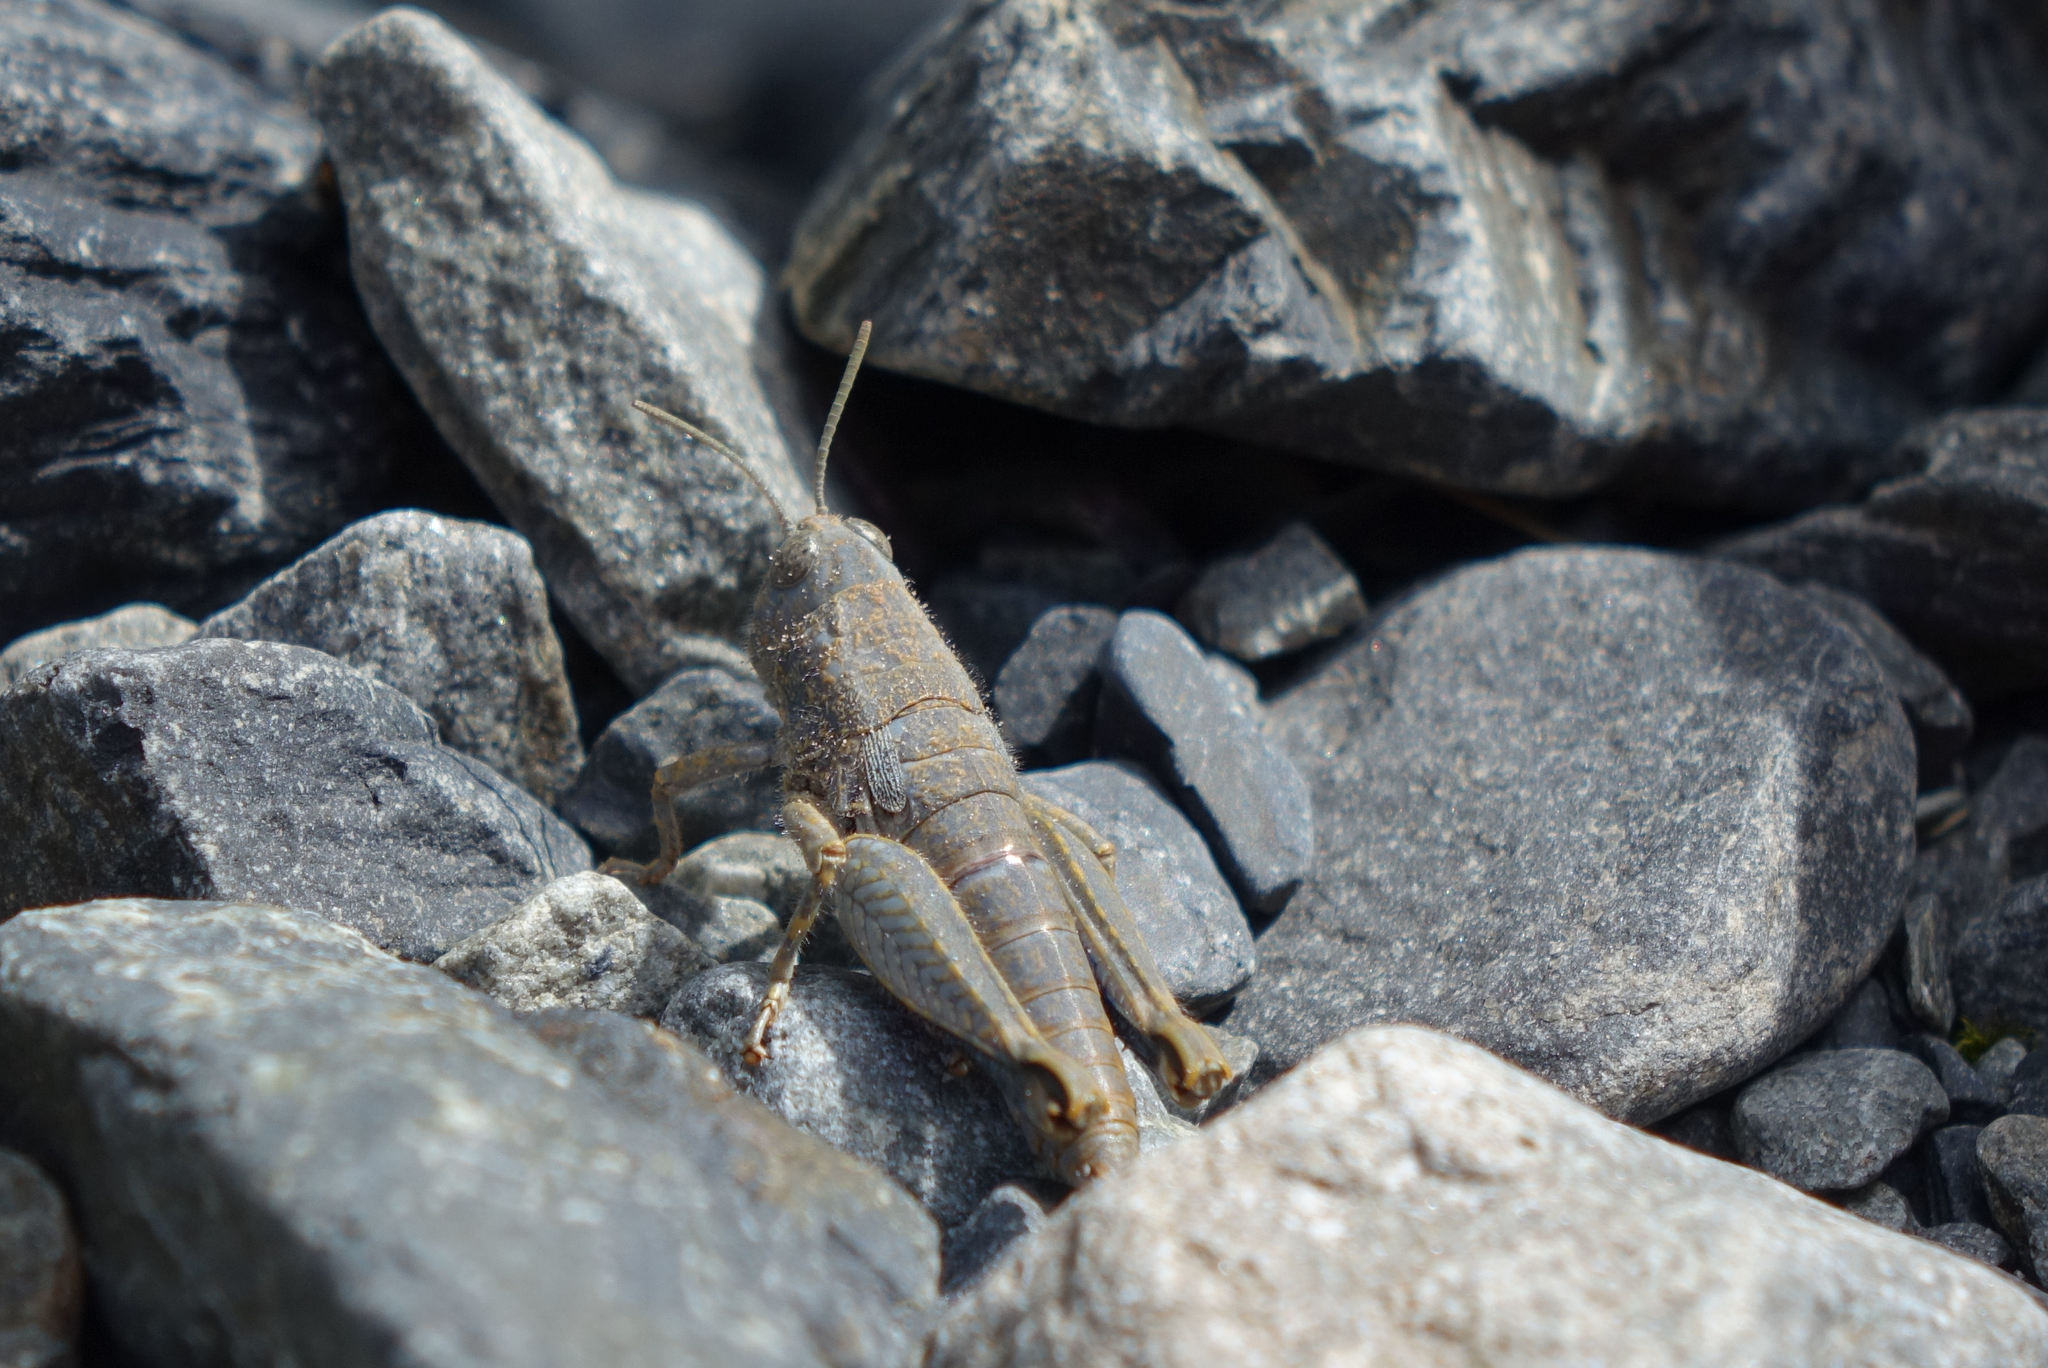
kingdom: Animalia
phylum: Arthropoda
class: Insecta
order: Orthoptera
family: Acrididae
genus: Sigaus
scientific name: Sigaus
